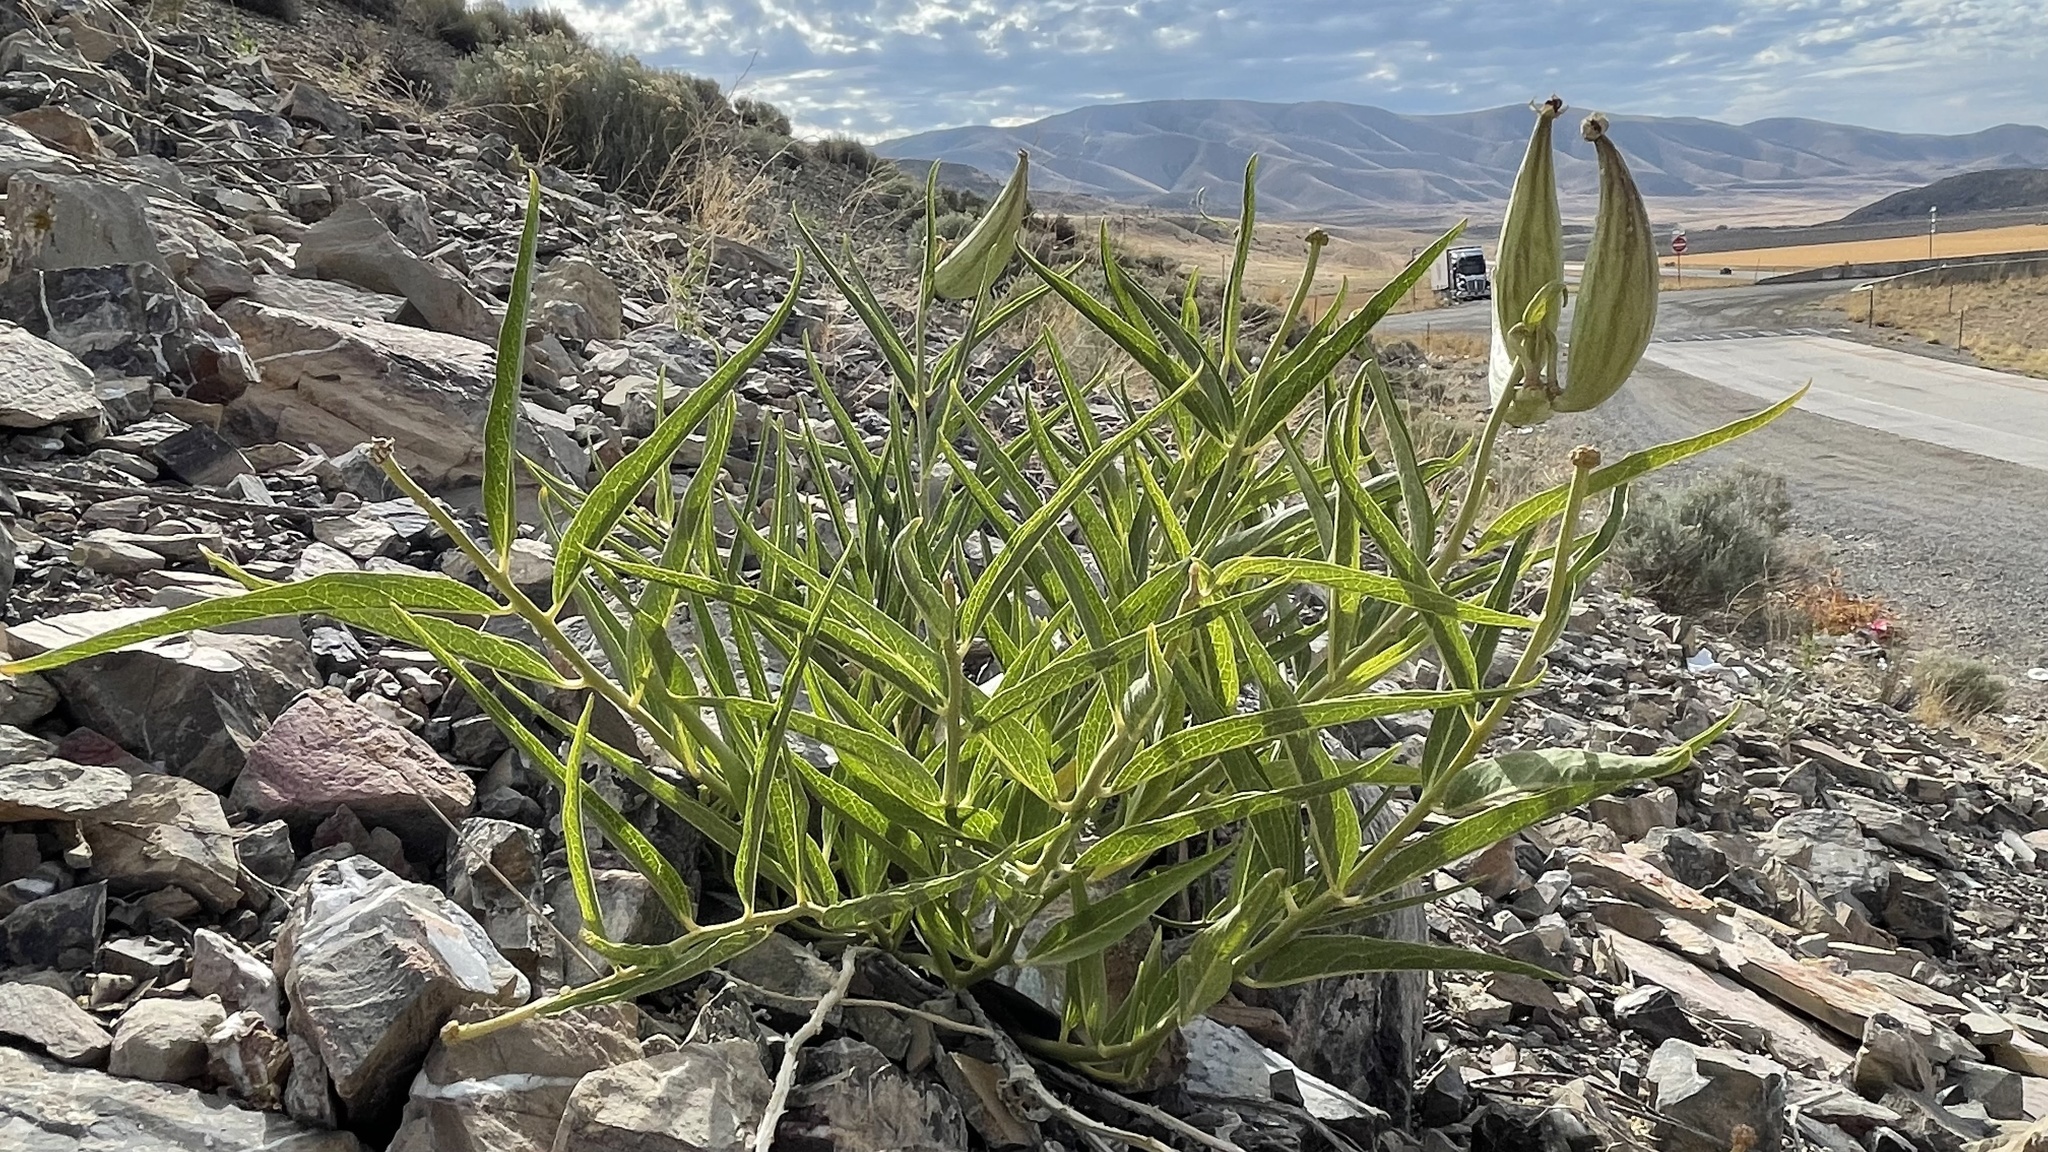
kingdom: Plantae
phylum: Tracheophyta
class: Magnoliopsida
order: Gentianales
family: Apocynaceae
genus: Asclepias
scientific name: Asclepias asperula
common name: Antelope horns
